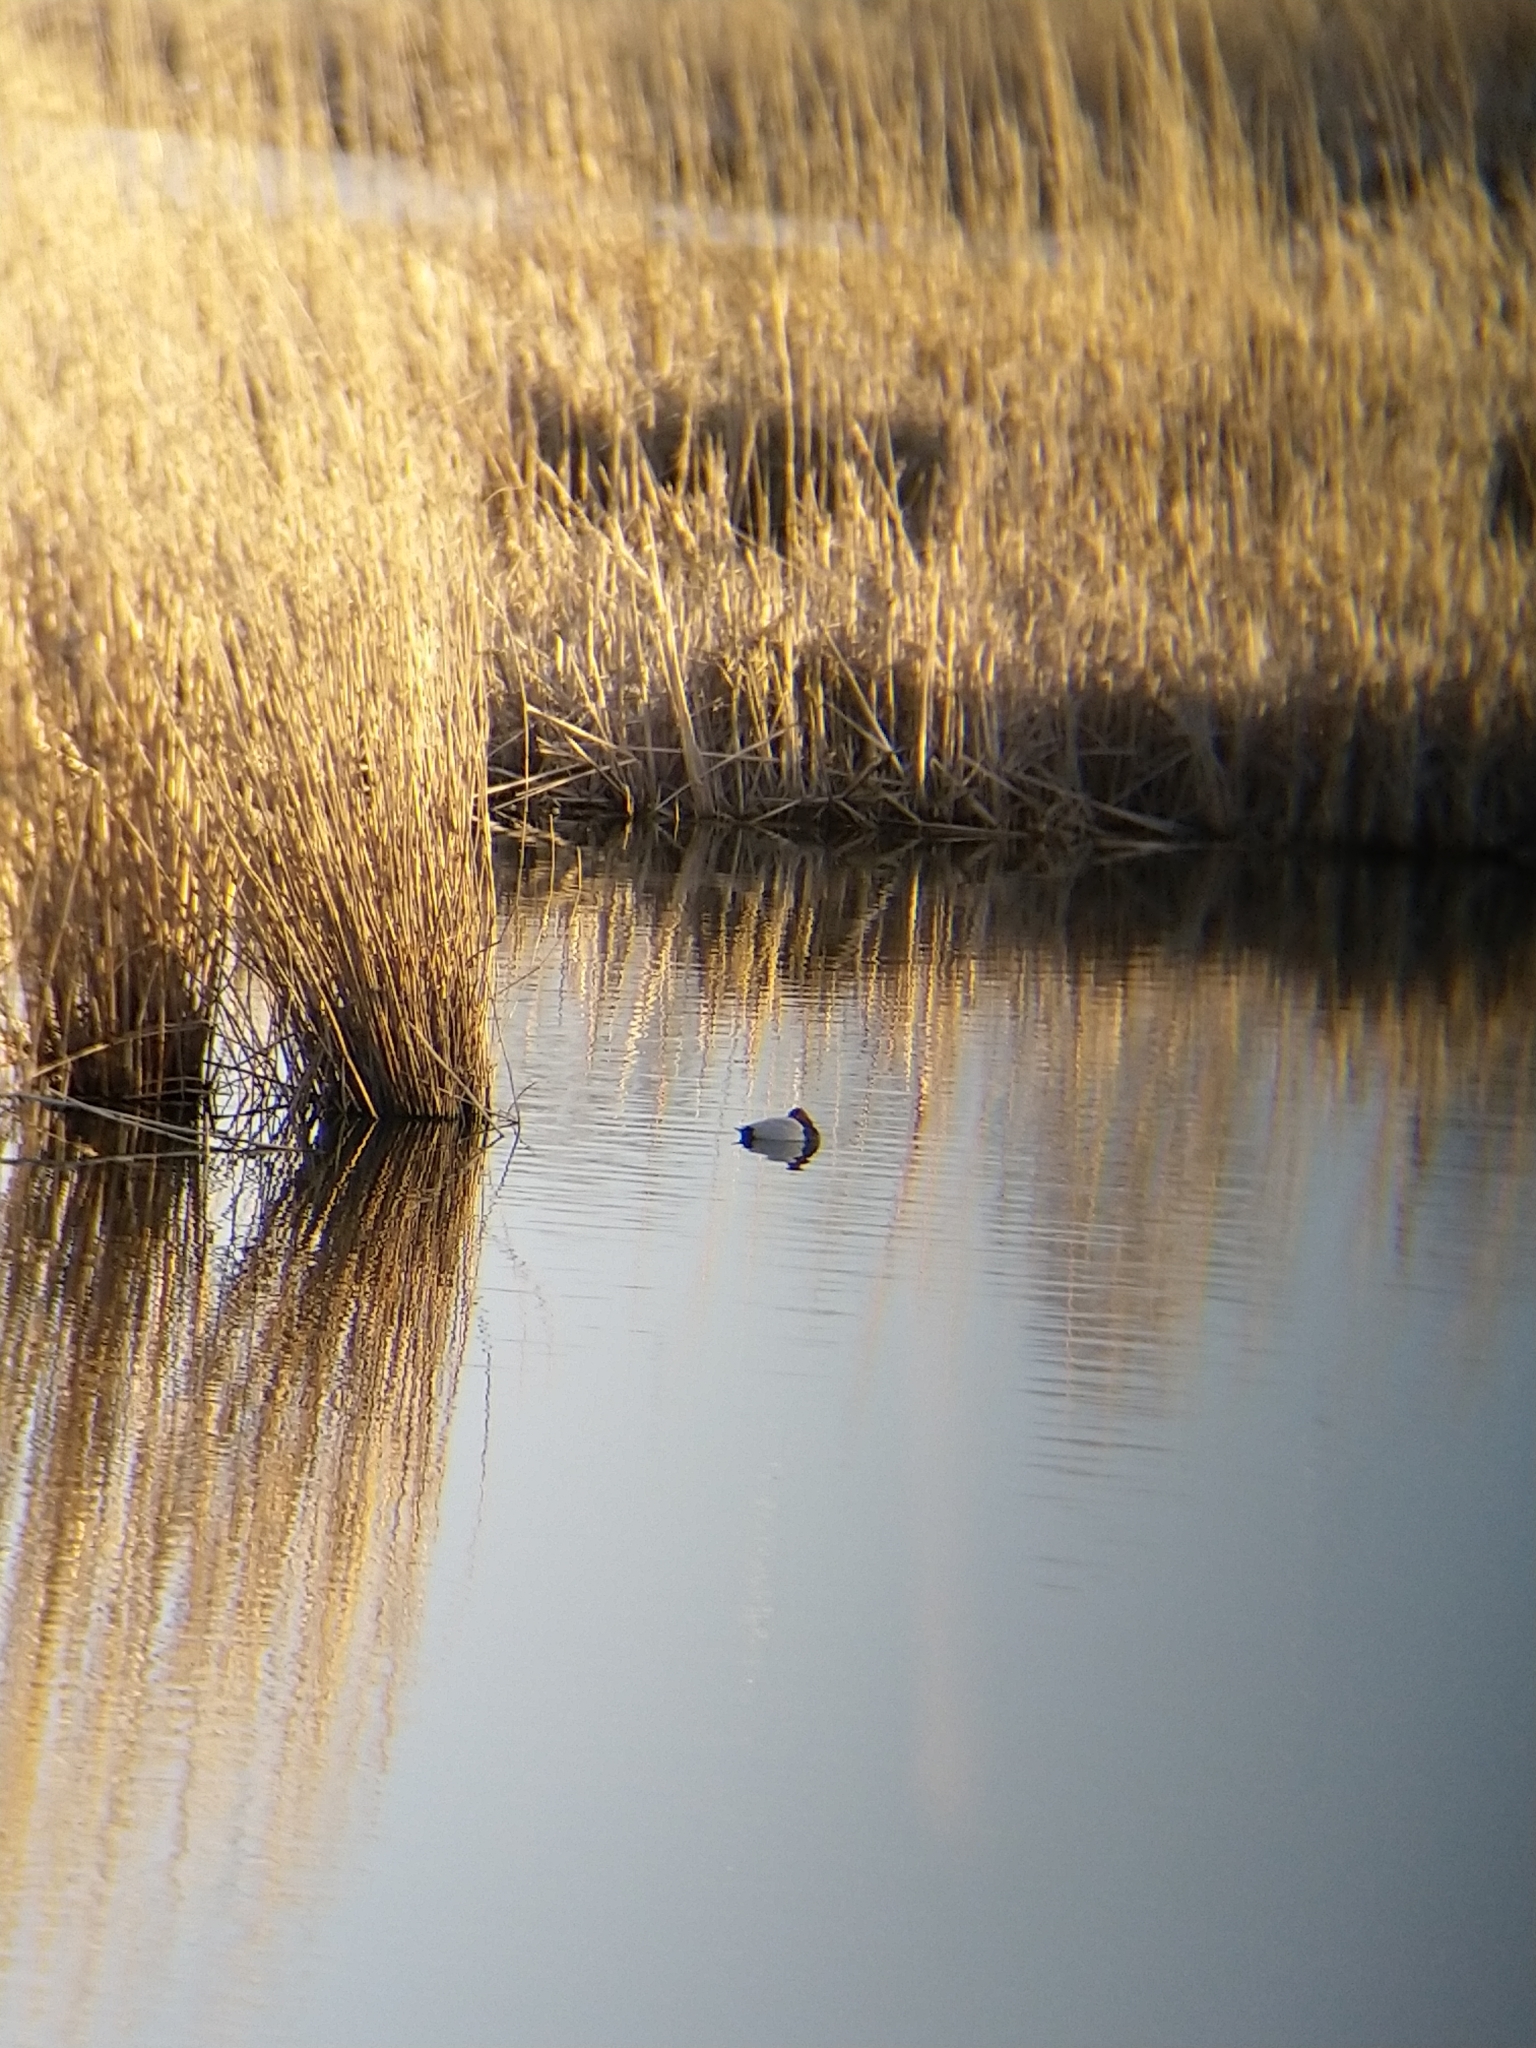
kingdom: Animalia
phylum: Chordata
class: Aves
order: Anseriformes
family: Anatidae
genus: Aythya
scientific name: Aythya ferina
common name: Common pochard
